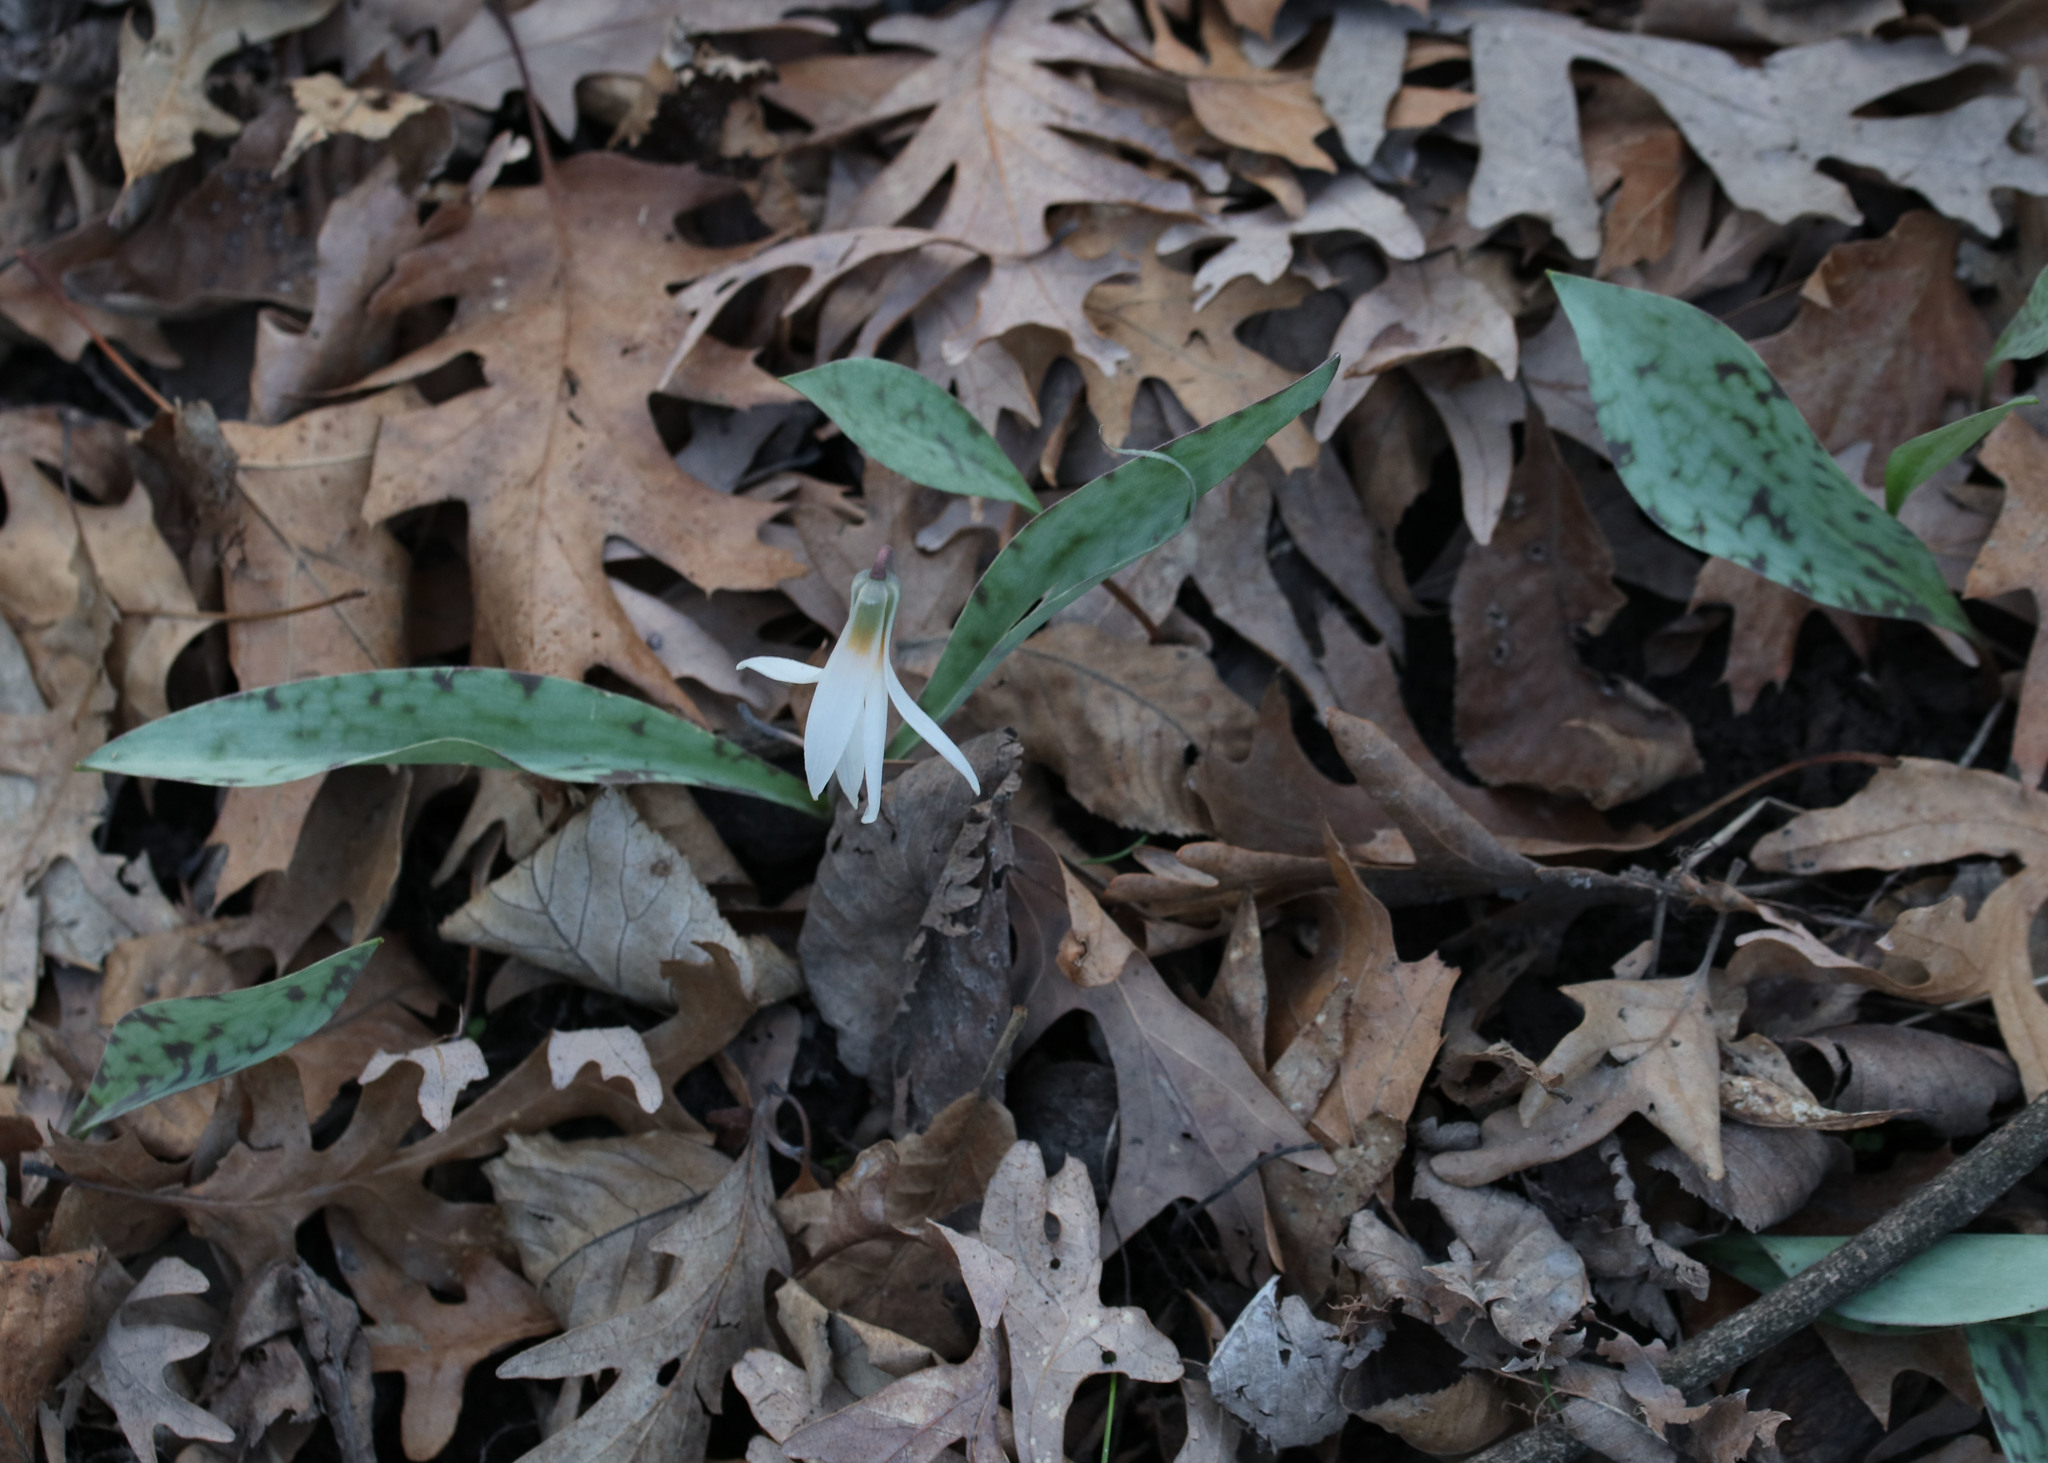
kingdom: Plantae
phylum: Tracheophyta
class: Liliopsida
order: Liliales
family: Liliaceae
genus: Erythronium
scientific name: Erythronium albidum
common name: White trout-lily
